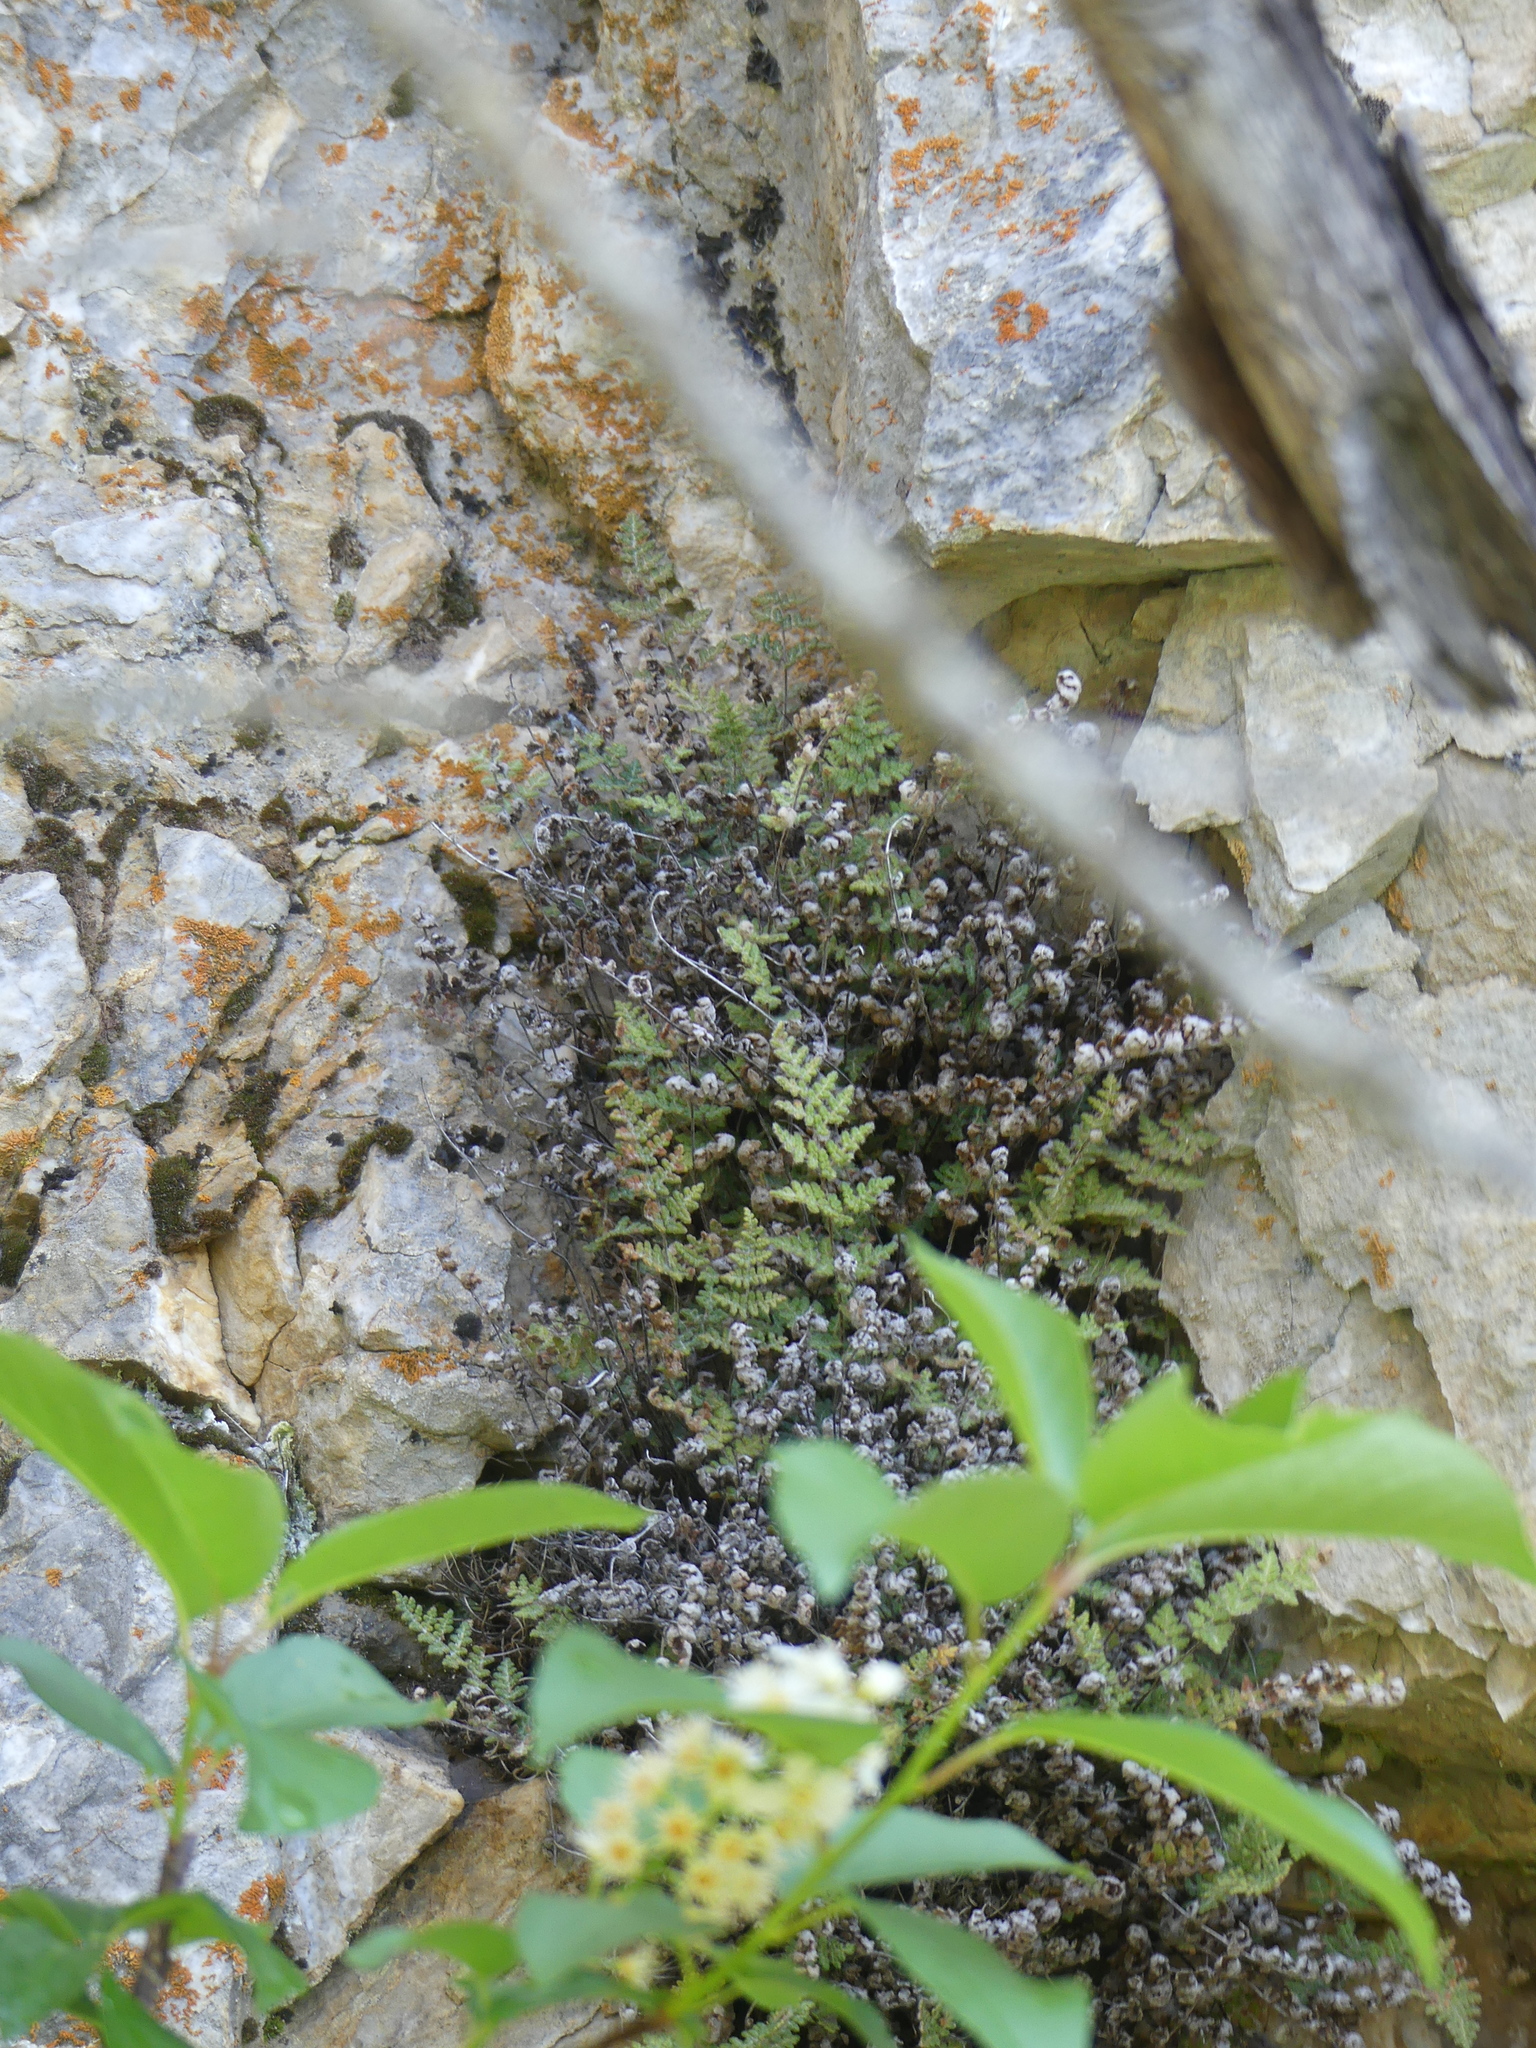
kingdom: Plantae
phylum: Tracheophyta
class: Polypodiopsida
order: Polypodiales
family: Pteridaceae
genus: Myriopteris
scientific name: Myriopteris gracilis
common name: Fee's lip fern
